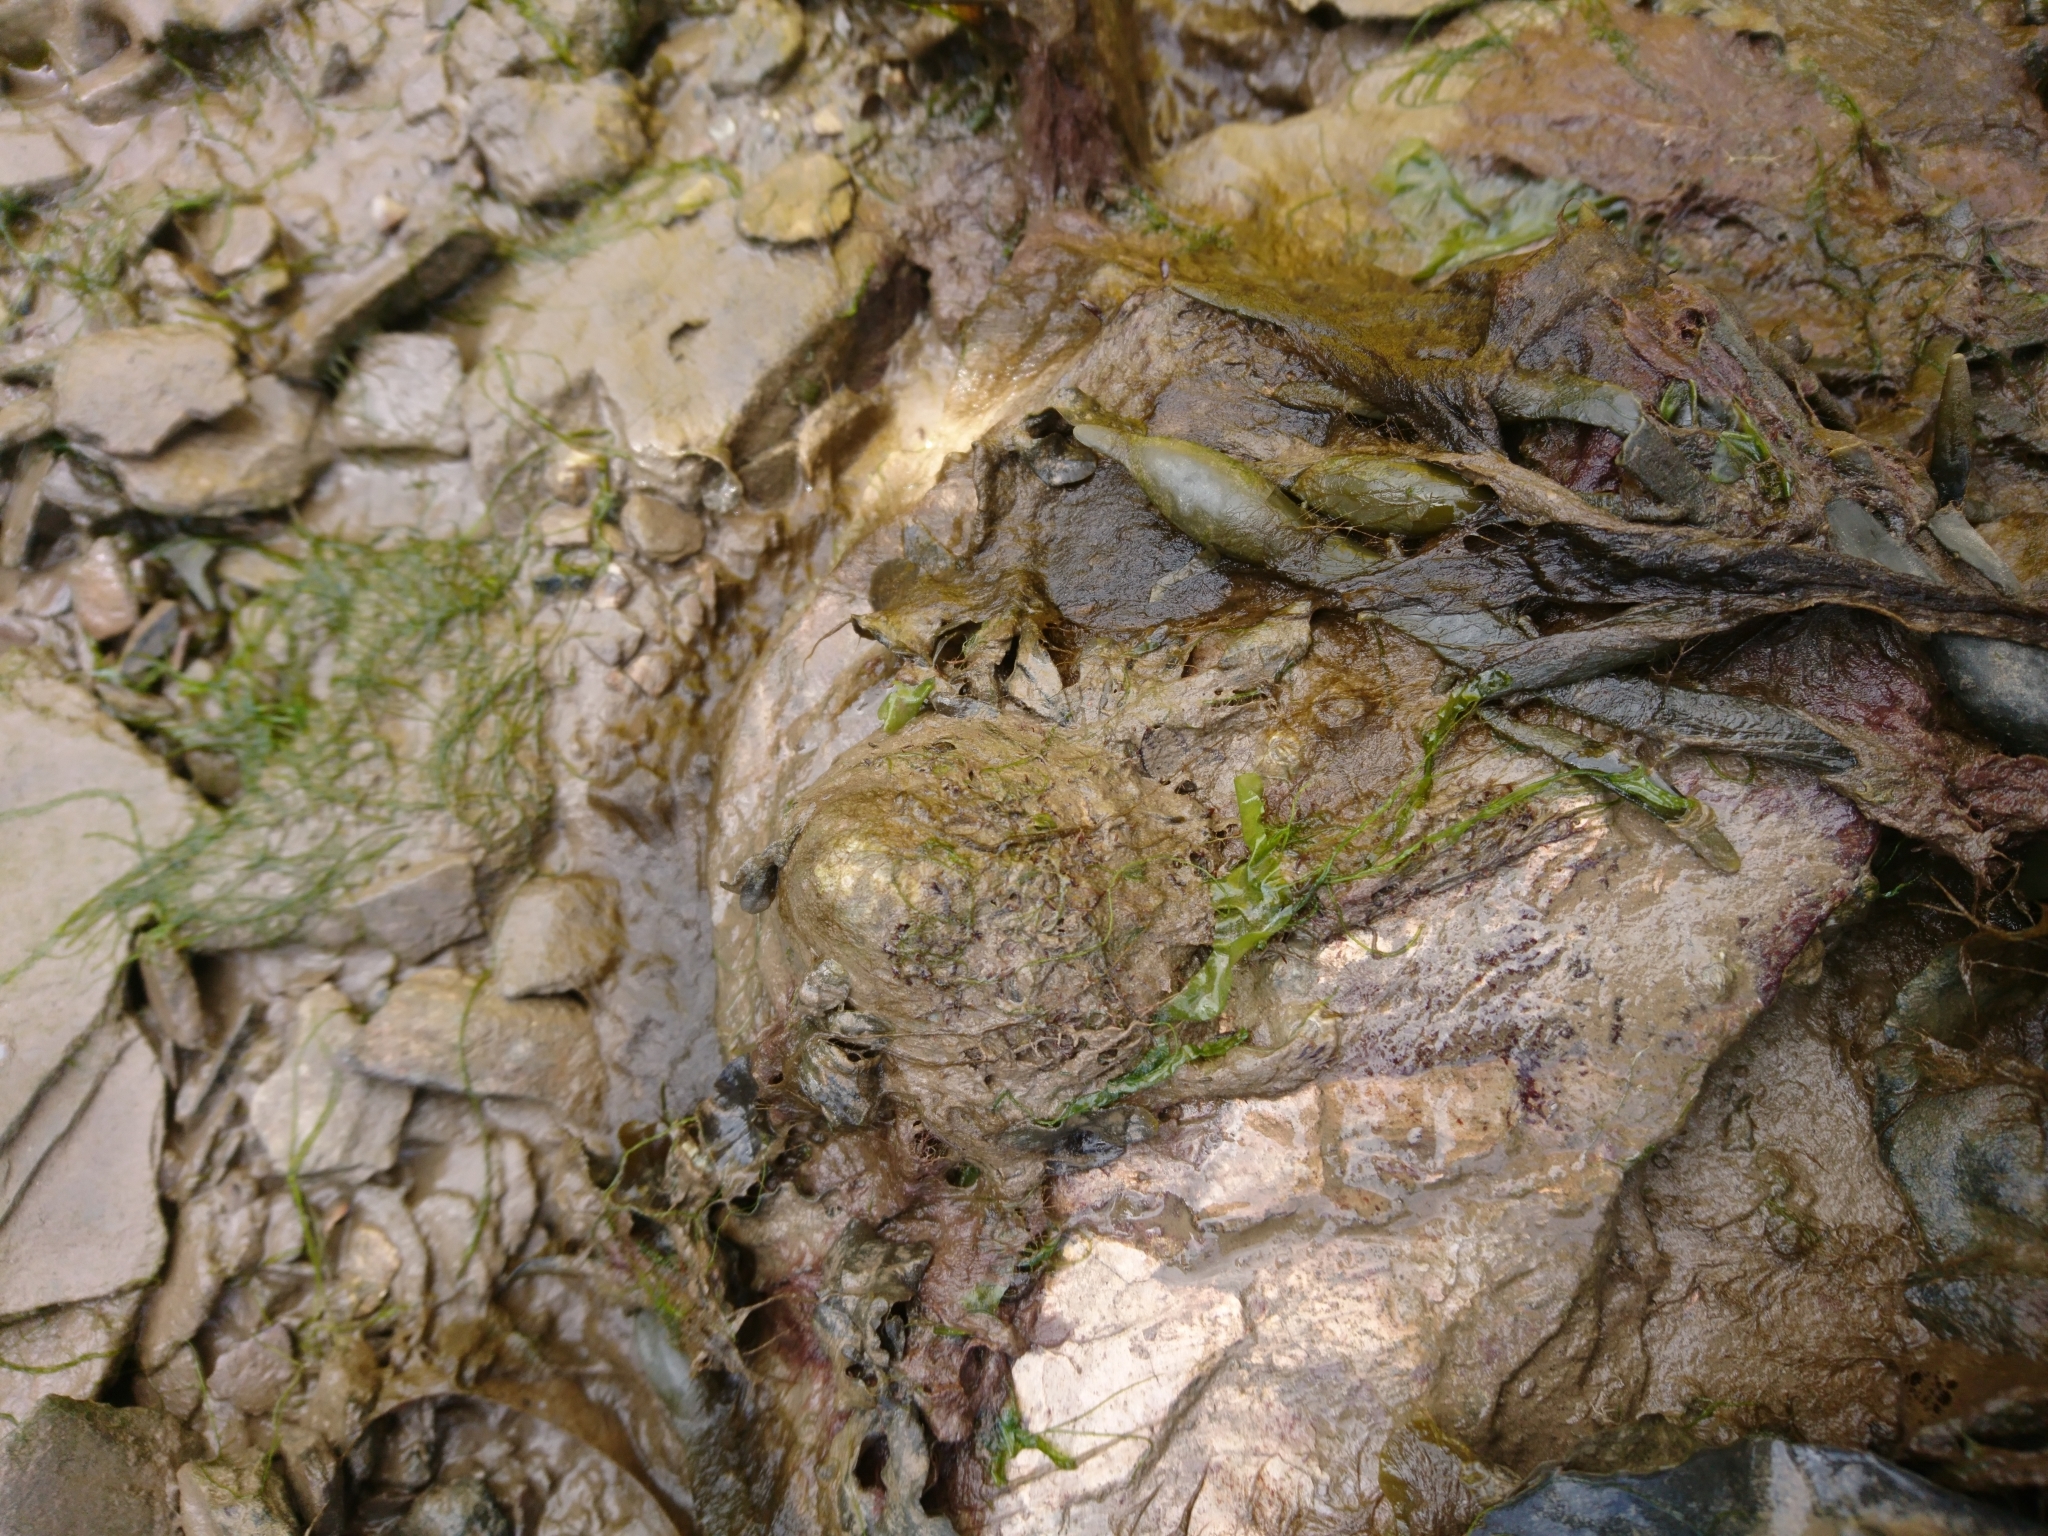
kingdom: Animalia
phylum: Mollusca
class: Gastropoda
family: Patellidae
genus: Patella
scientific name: Patella vulgata
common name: Common limpet
